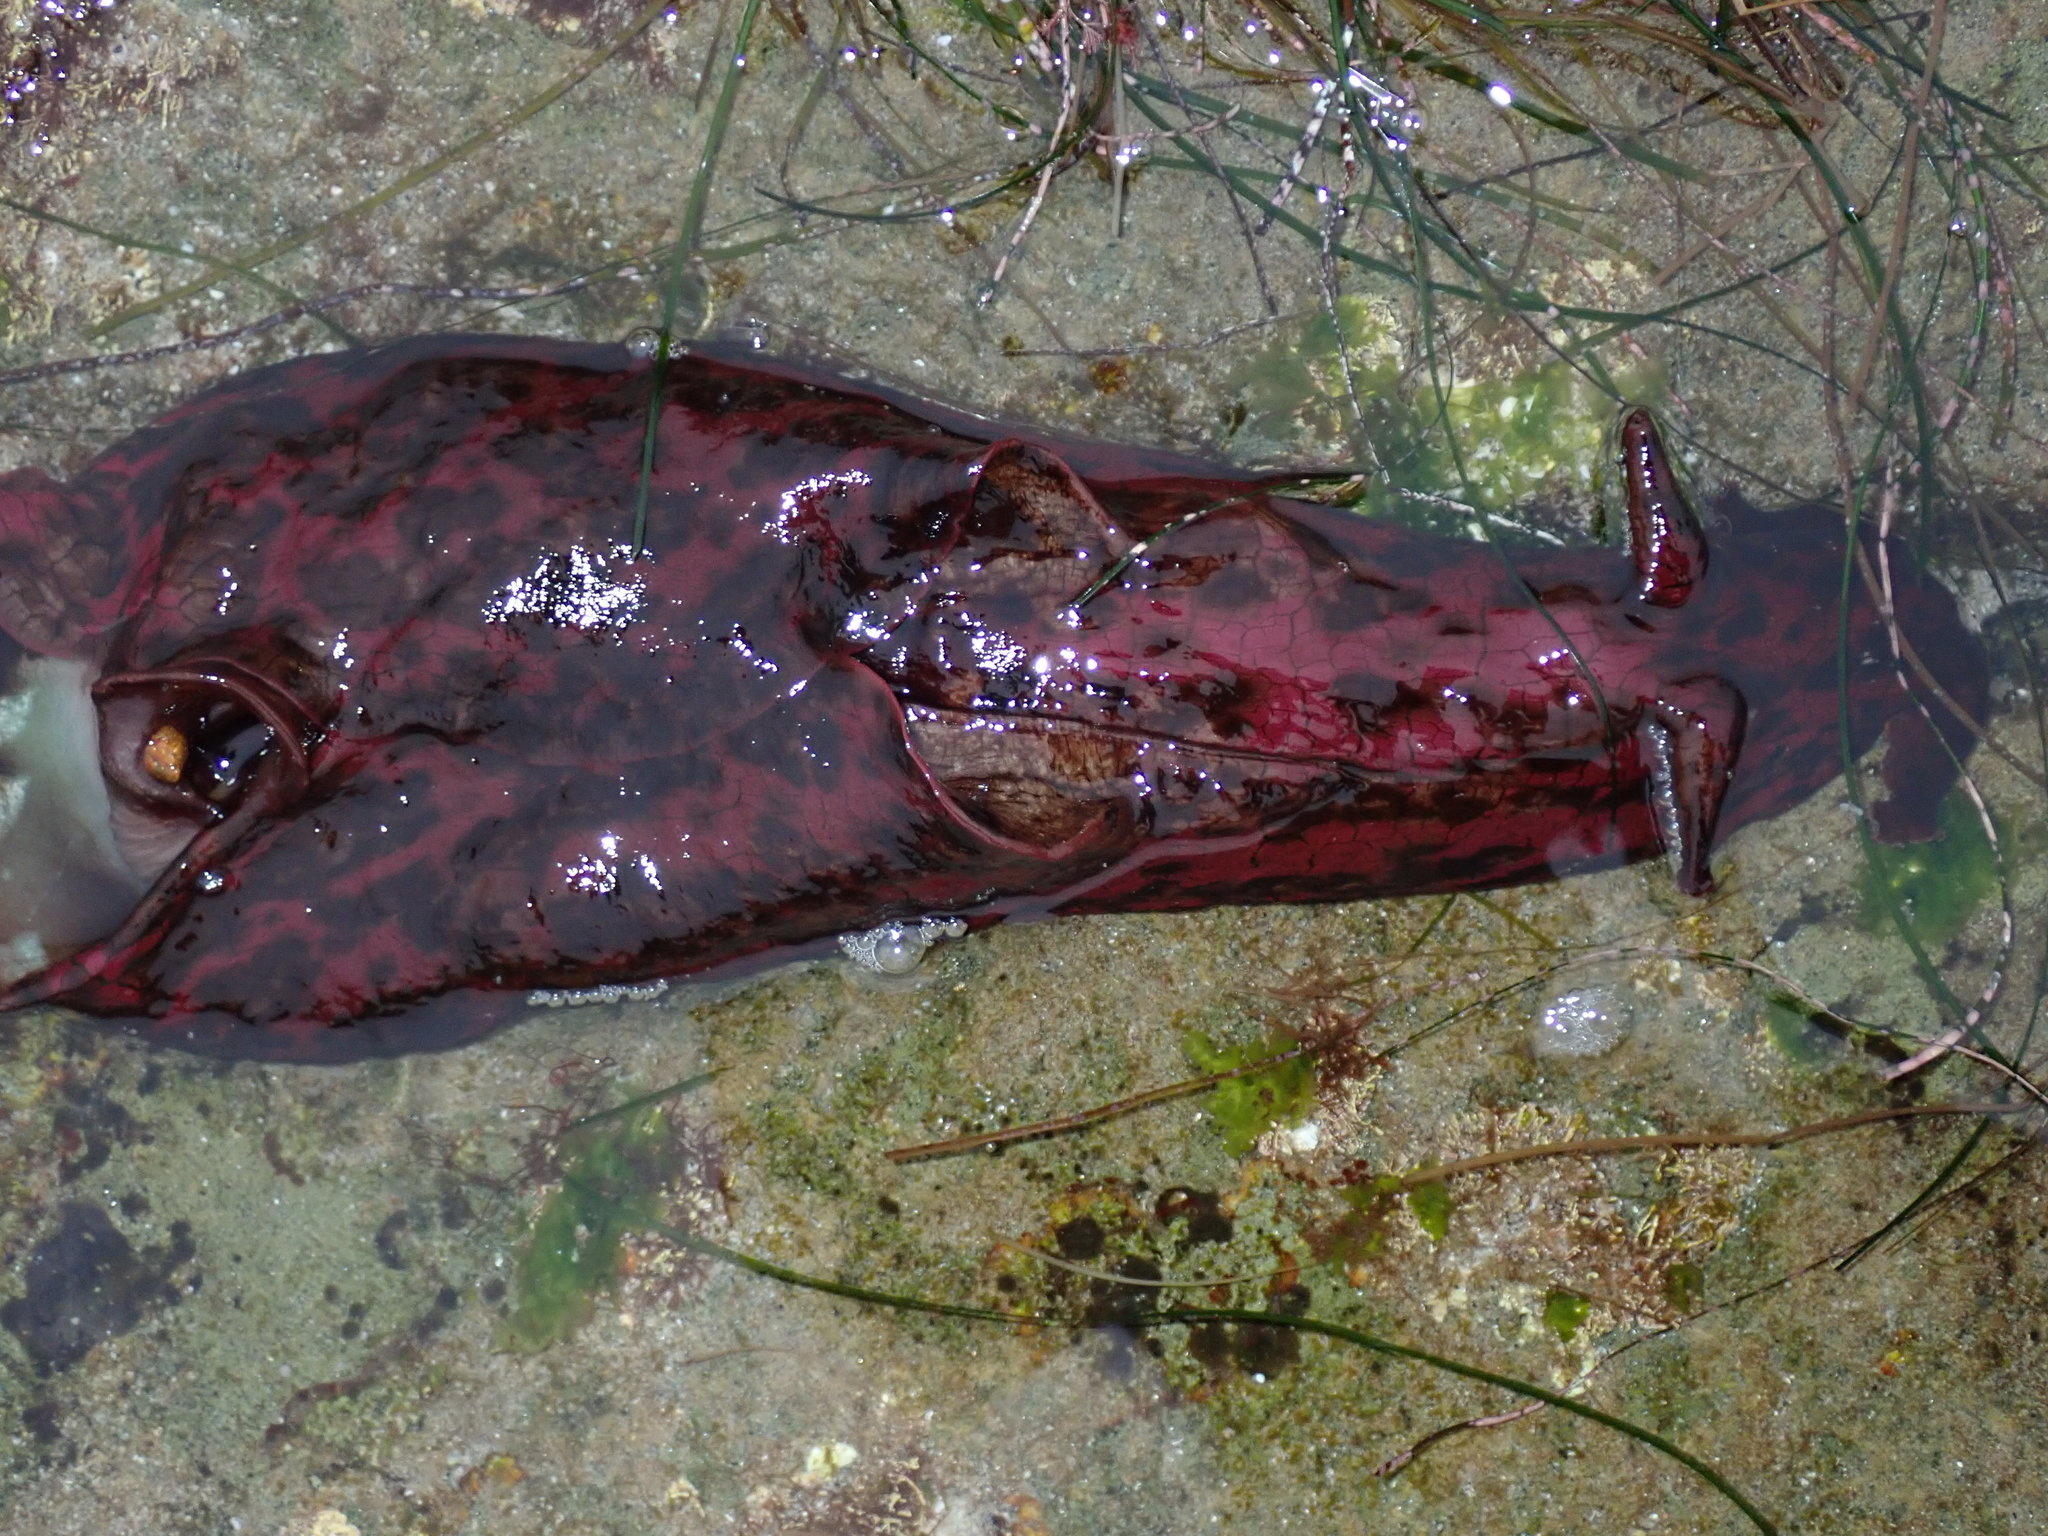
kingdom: Animalia
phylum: Mollusca
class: Gastropoda
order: Aplysiida
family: Aplysiidae
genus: Aplysia
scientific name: Aplysia californica
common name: California seahare
